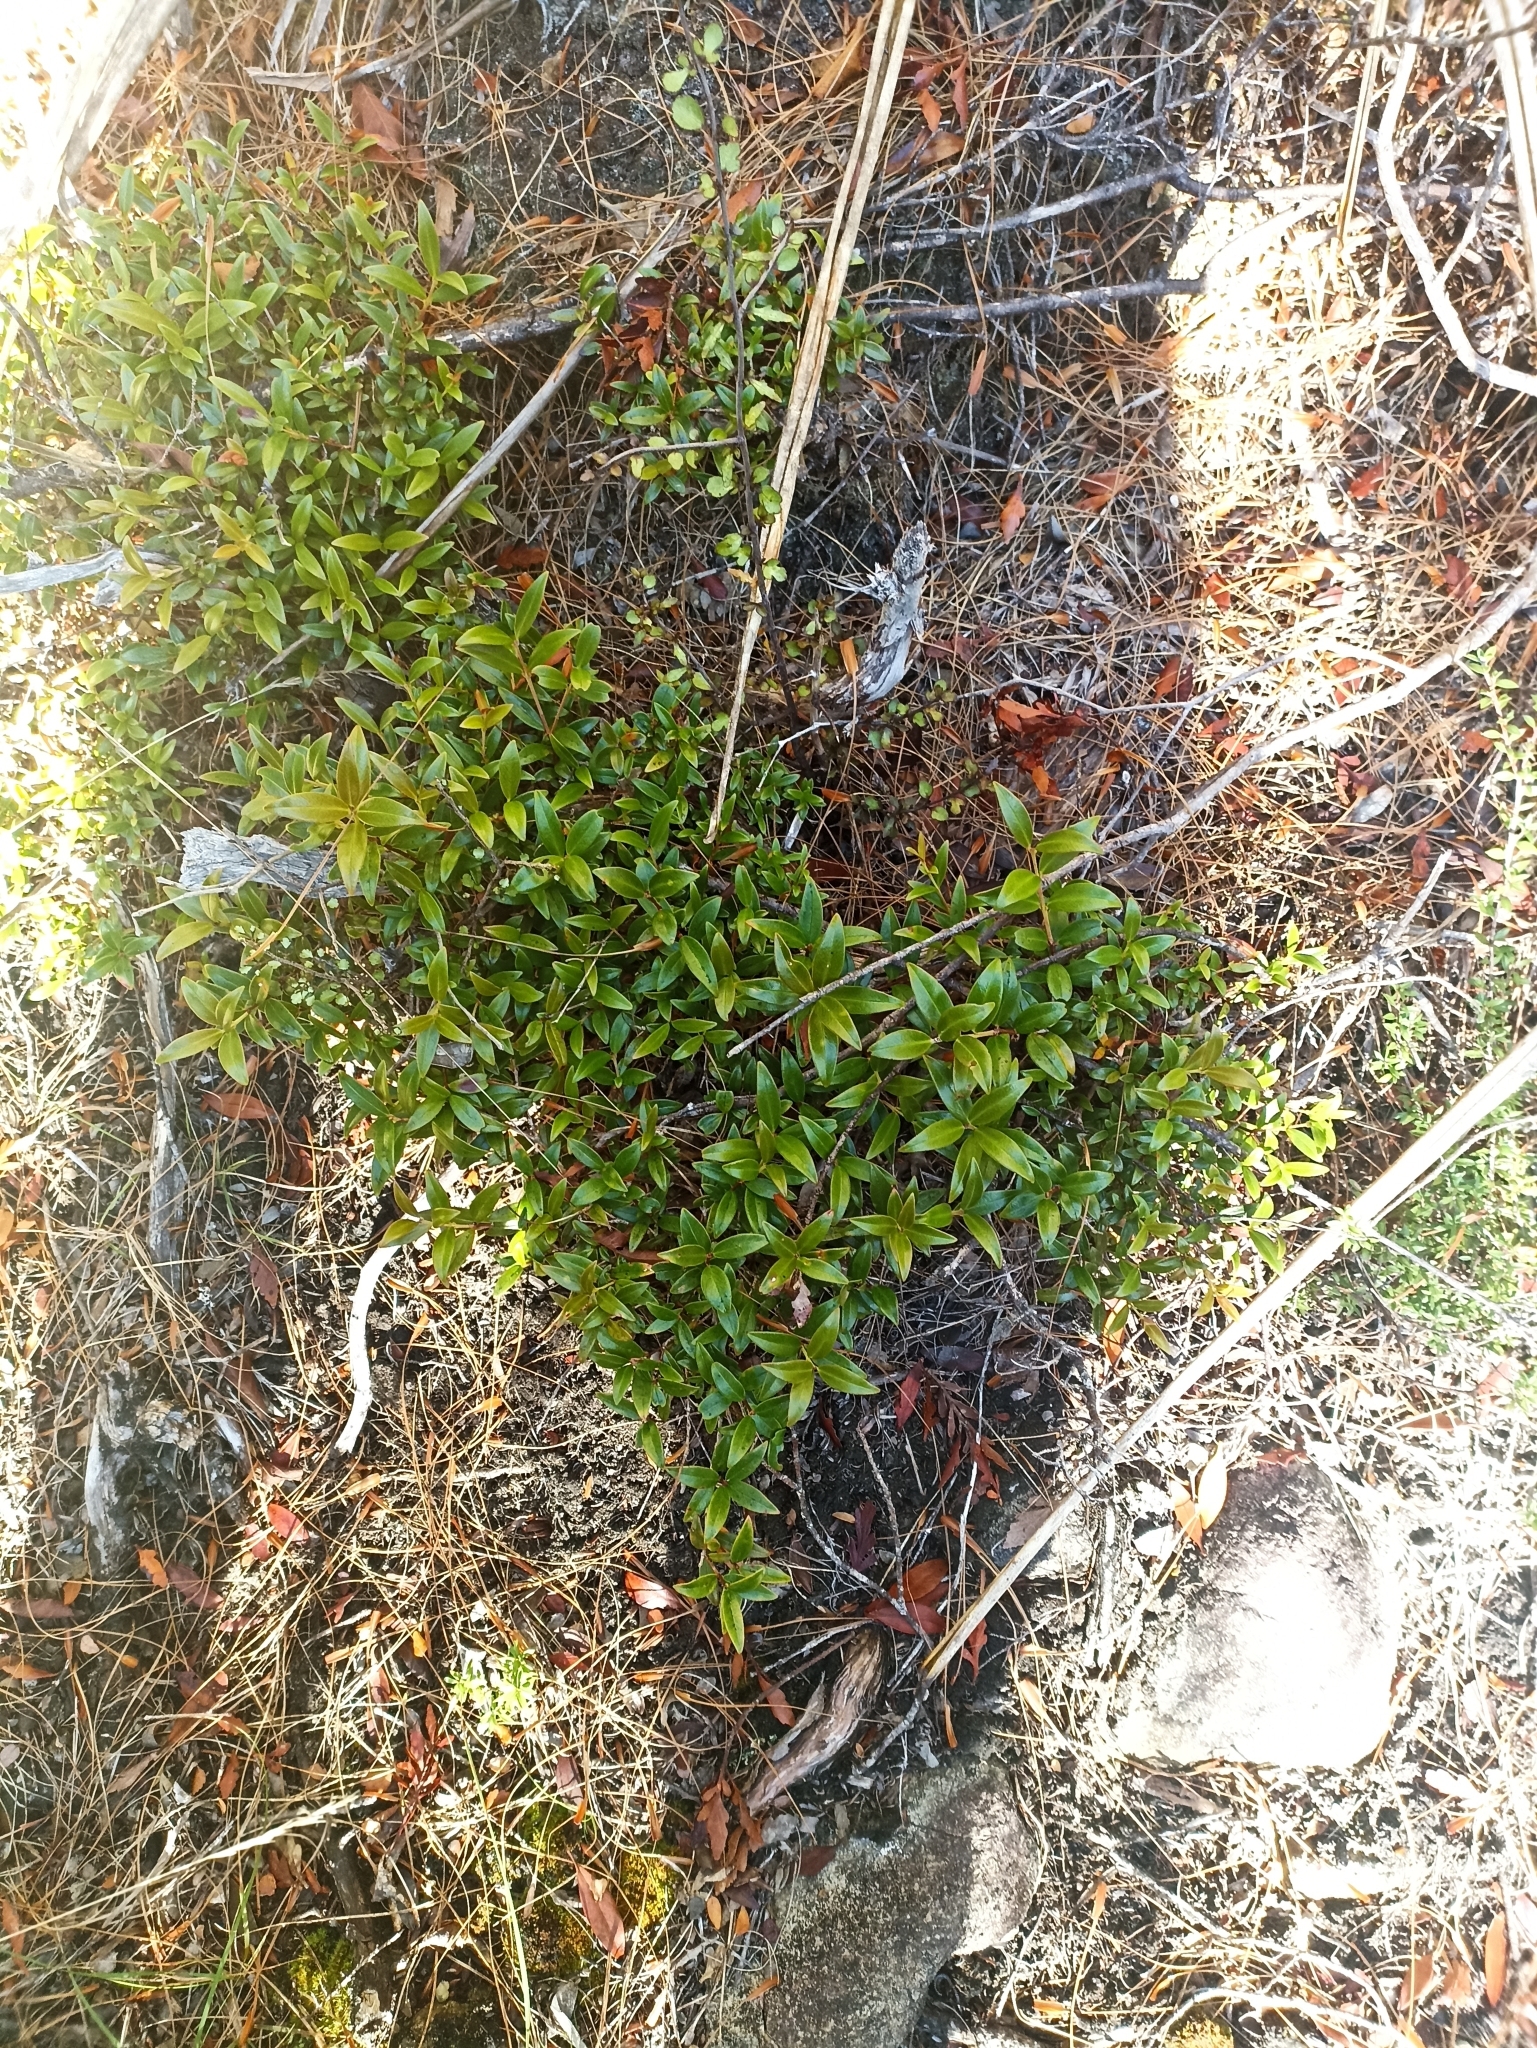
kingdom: Plantae
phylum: Tracheophyta
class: Magnoliopsida
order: Myrtales
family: Myrtaceae
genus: Metrosideros
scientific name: Metrosideros umbellata
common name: Southern rata
